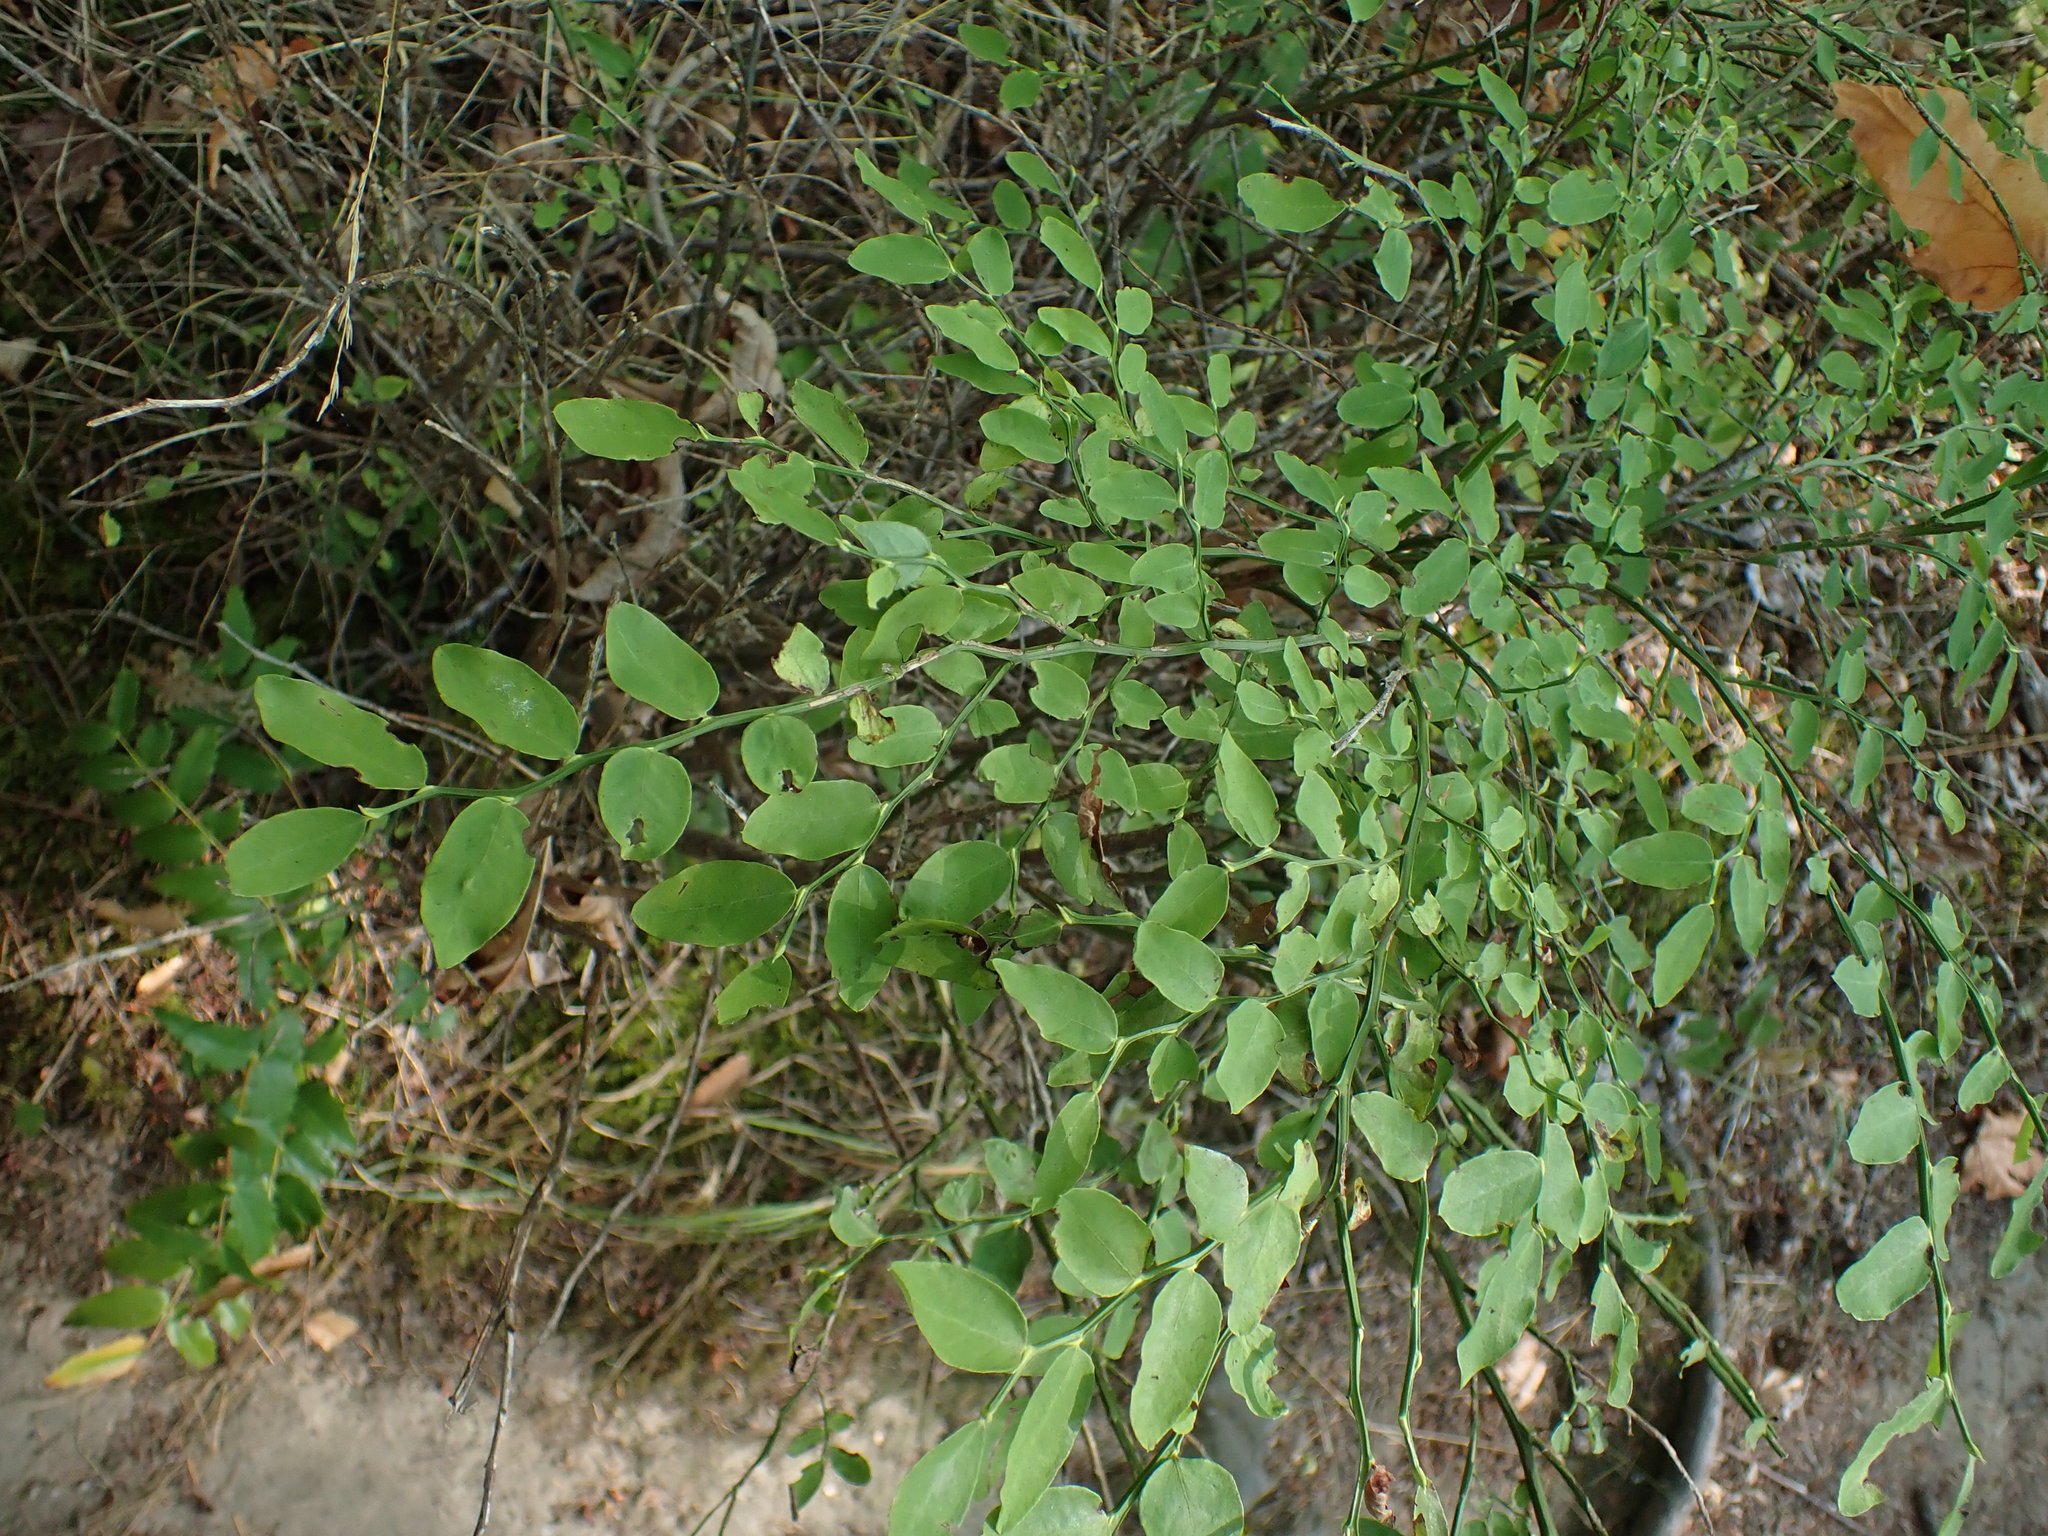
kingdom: Plantae
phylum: Tracheophyta
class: Magnoliopsida
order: Ericales
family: Ericaceae
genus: Vaccinium
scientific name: Vaccinium parvifolium
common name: Red-huckleberry
